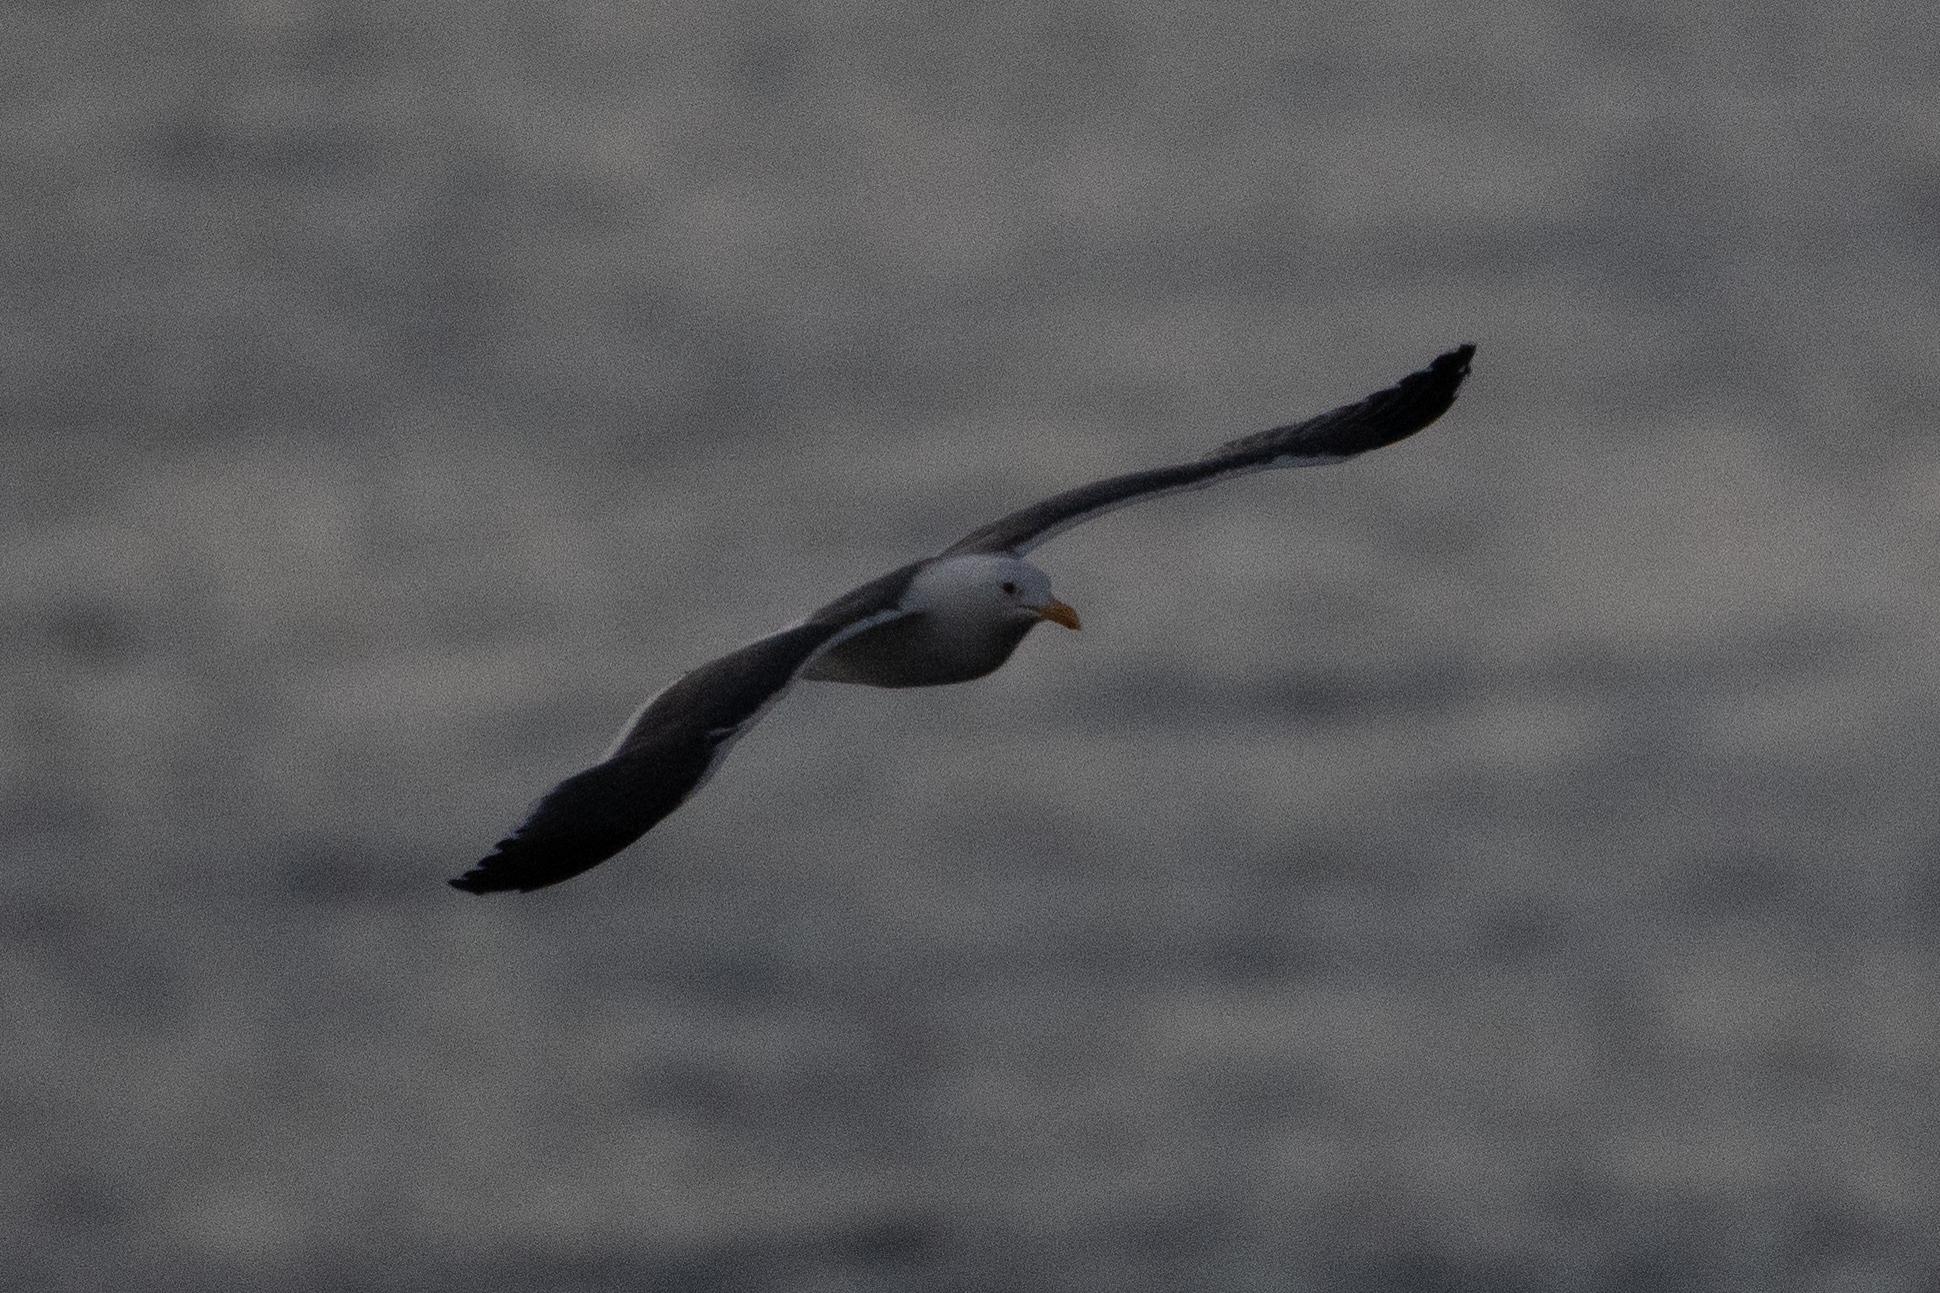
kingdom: Animalia
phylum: Chordata
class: Aves
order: Charadriiformes
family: Laridae
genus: Larus
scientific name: Larus occidentalis
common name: Western gull
